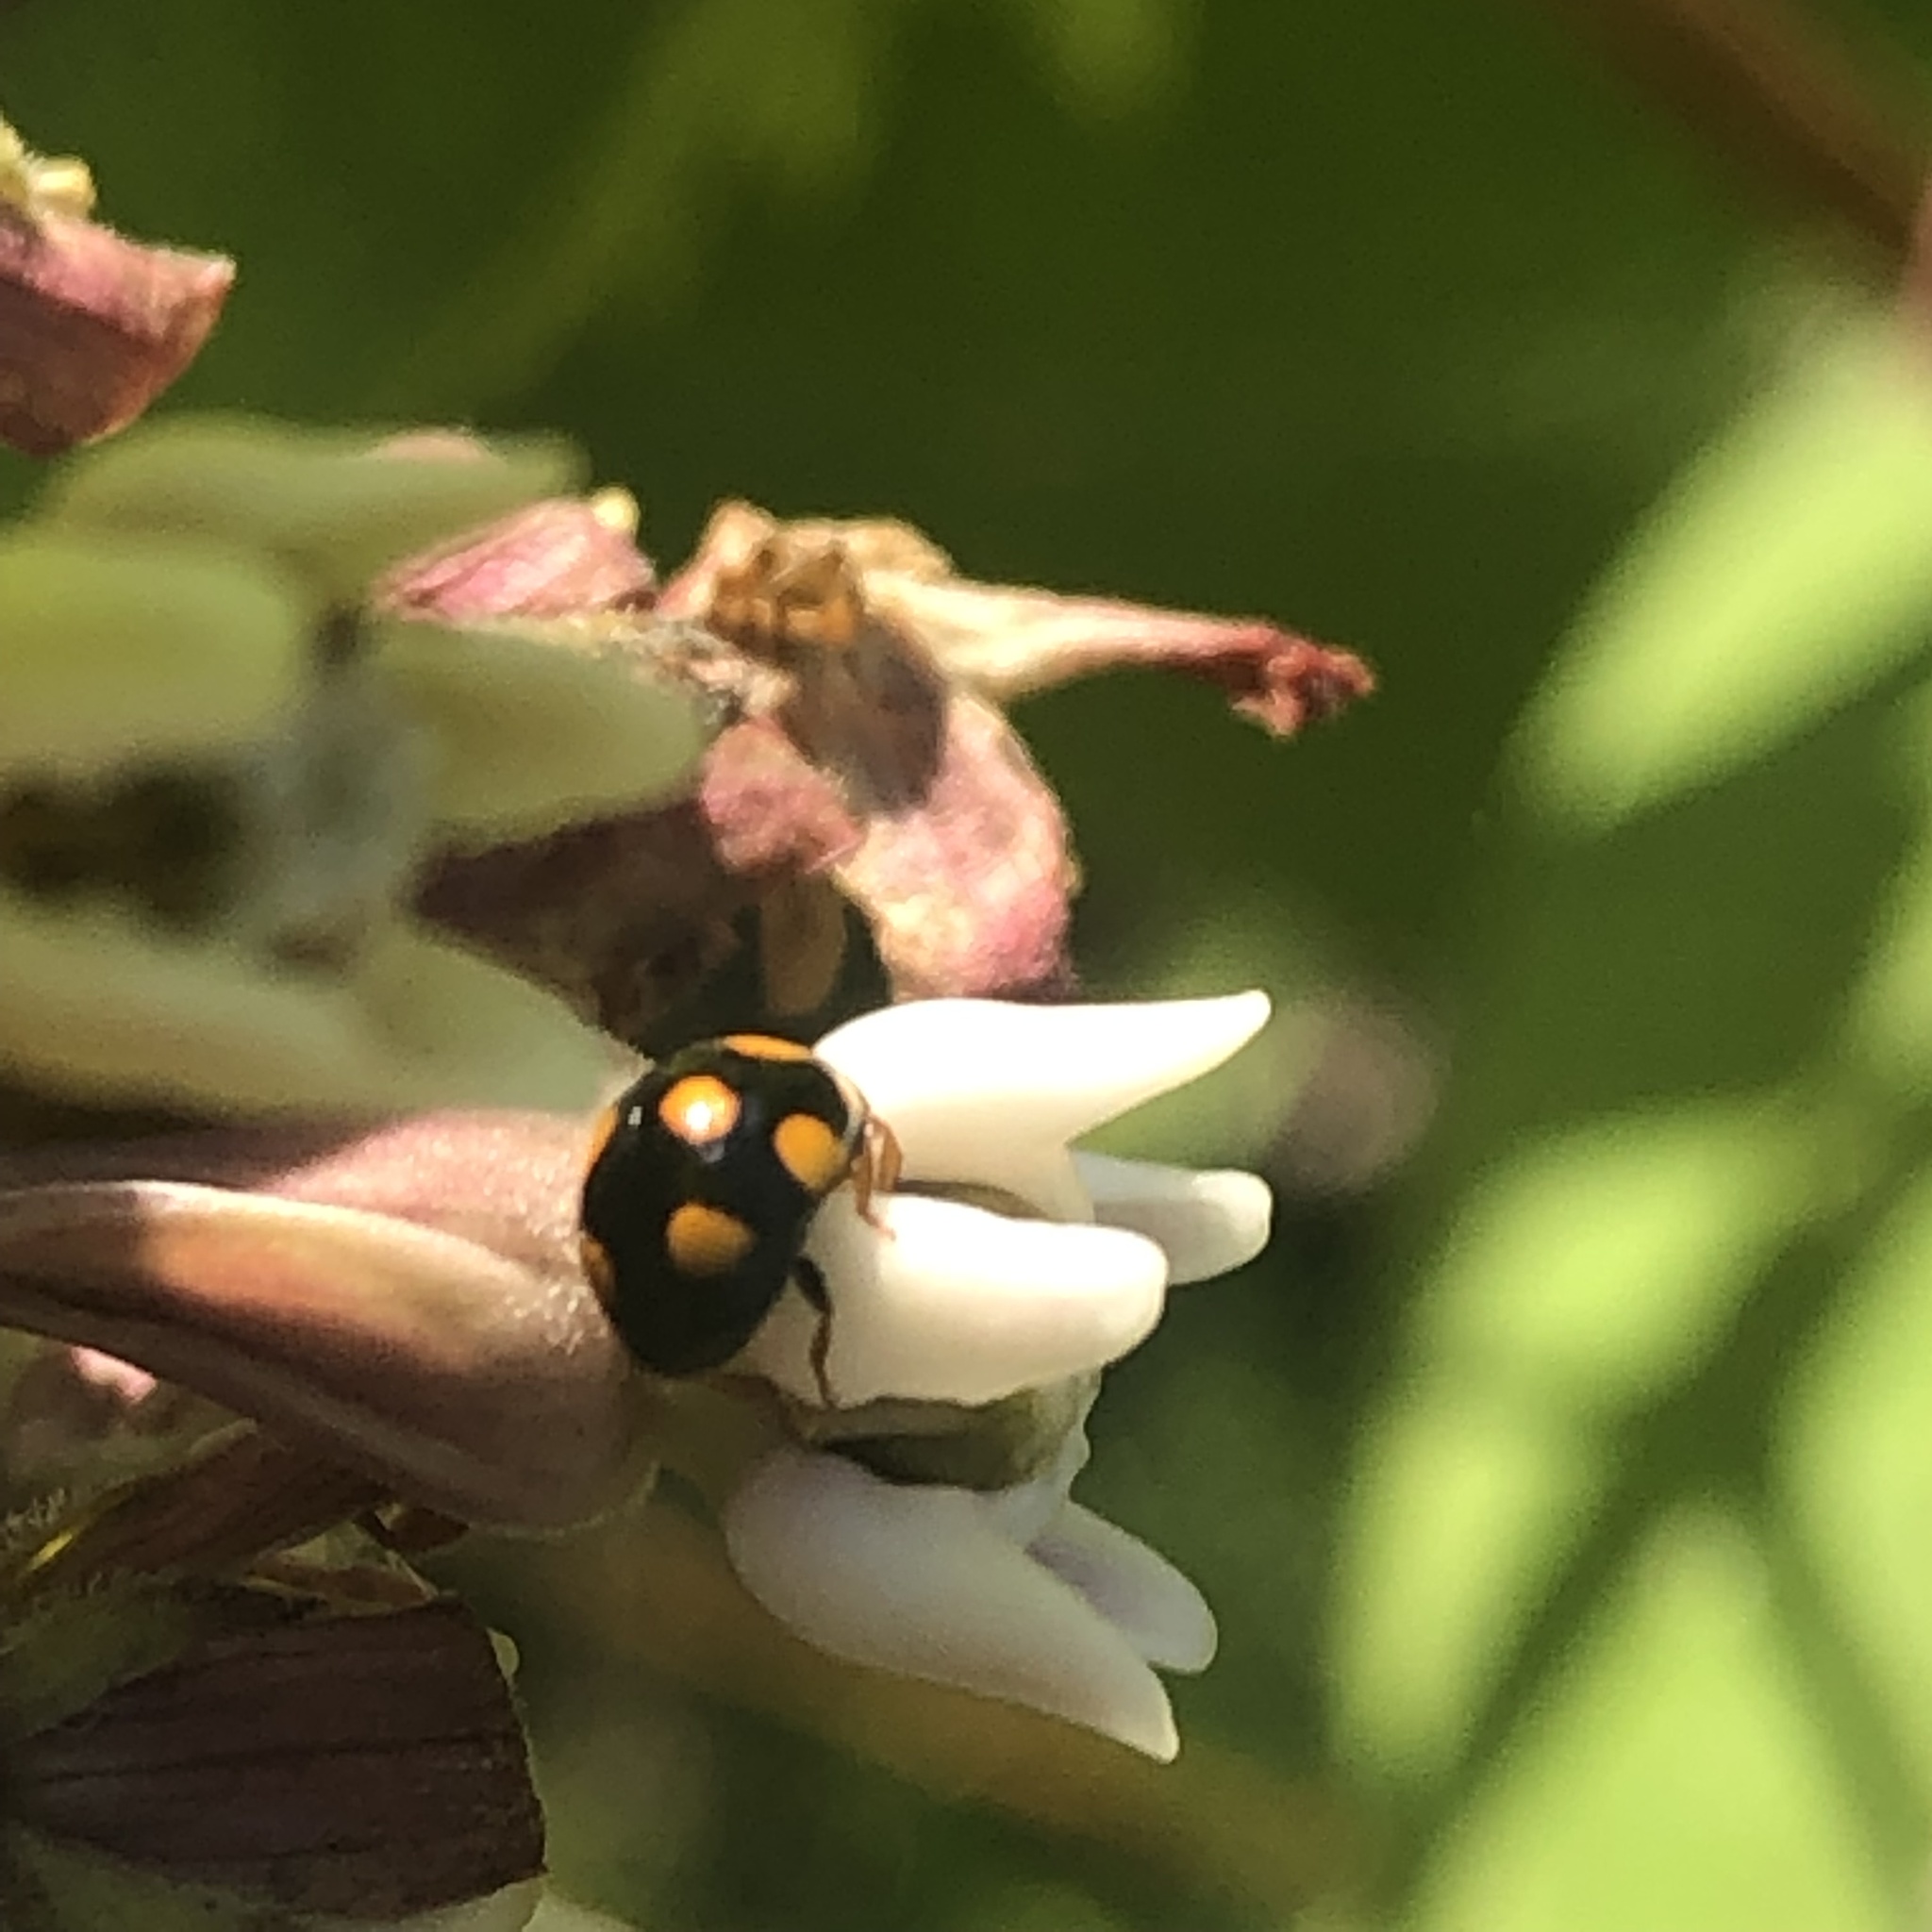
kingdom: Animalia
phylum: Arthropoda
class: Insecta
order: Coleoptera
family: Coccinellidae
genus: Brachiacantha
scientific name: Brachiacantha ursina
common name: Ursine spurleg lady beetle
